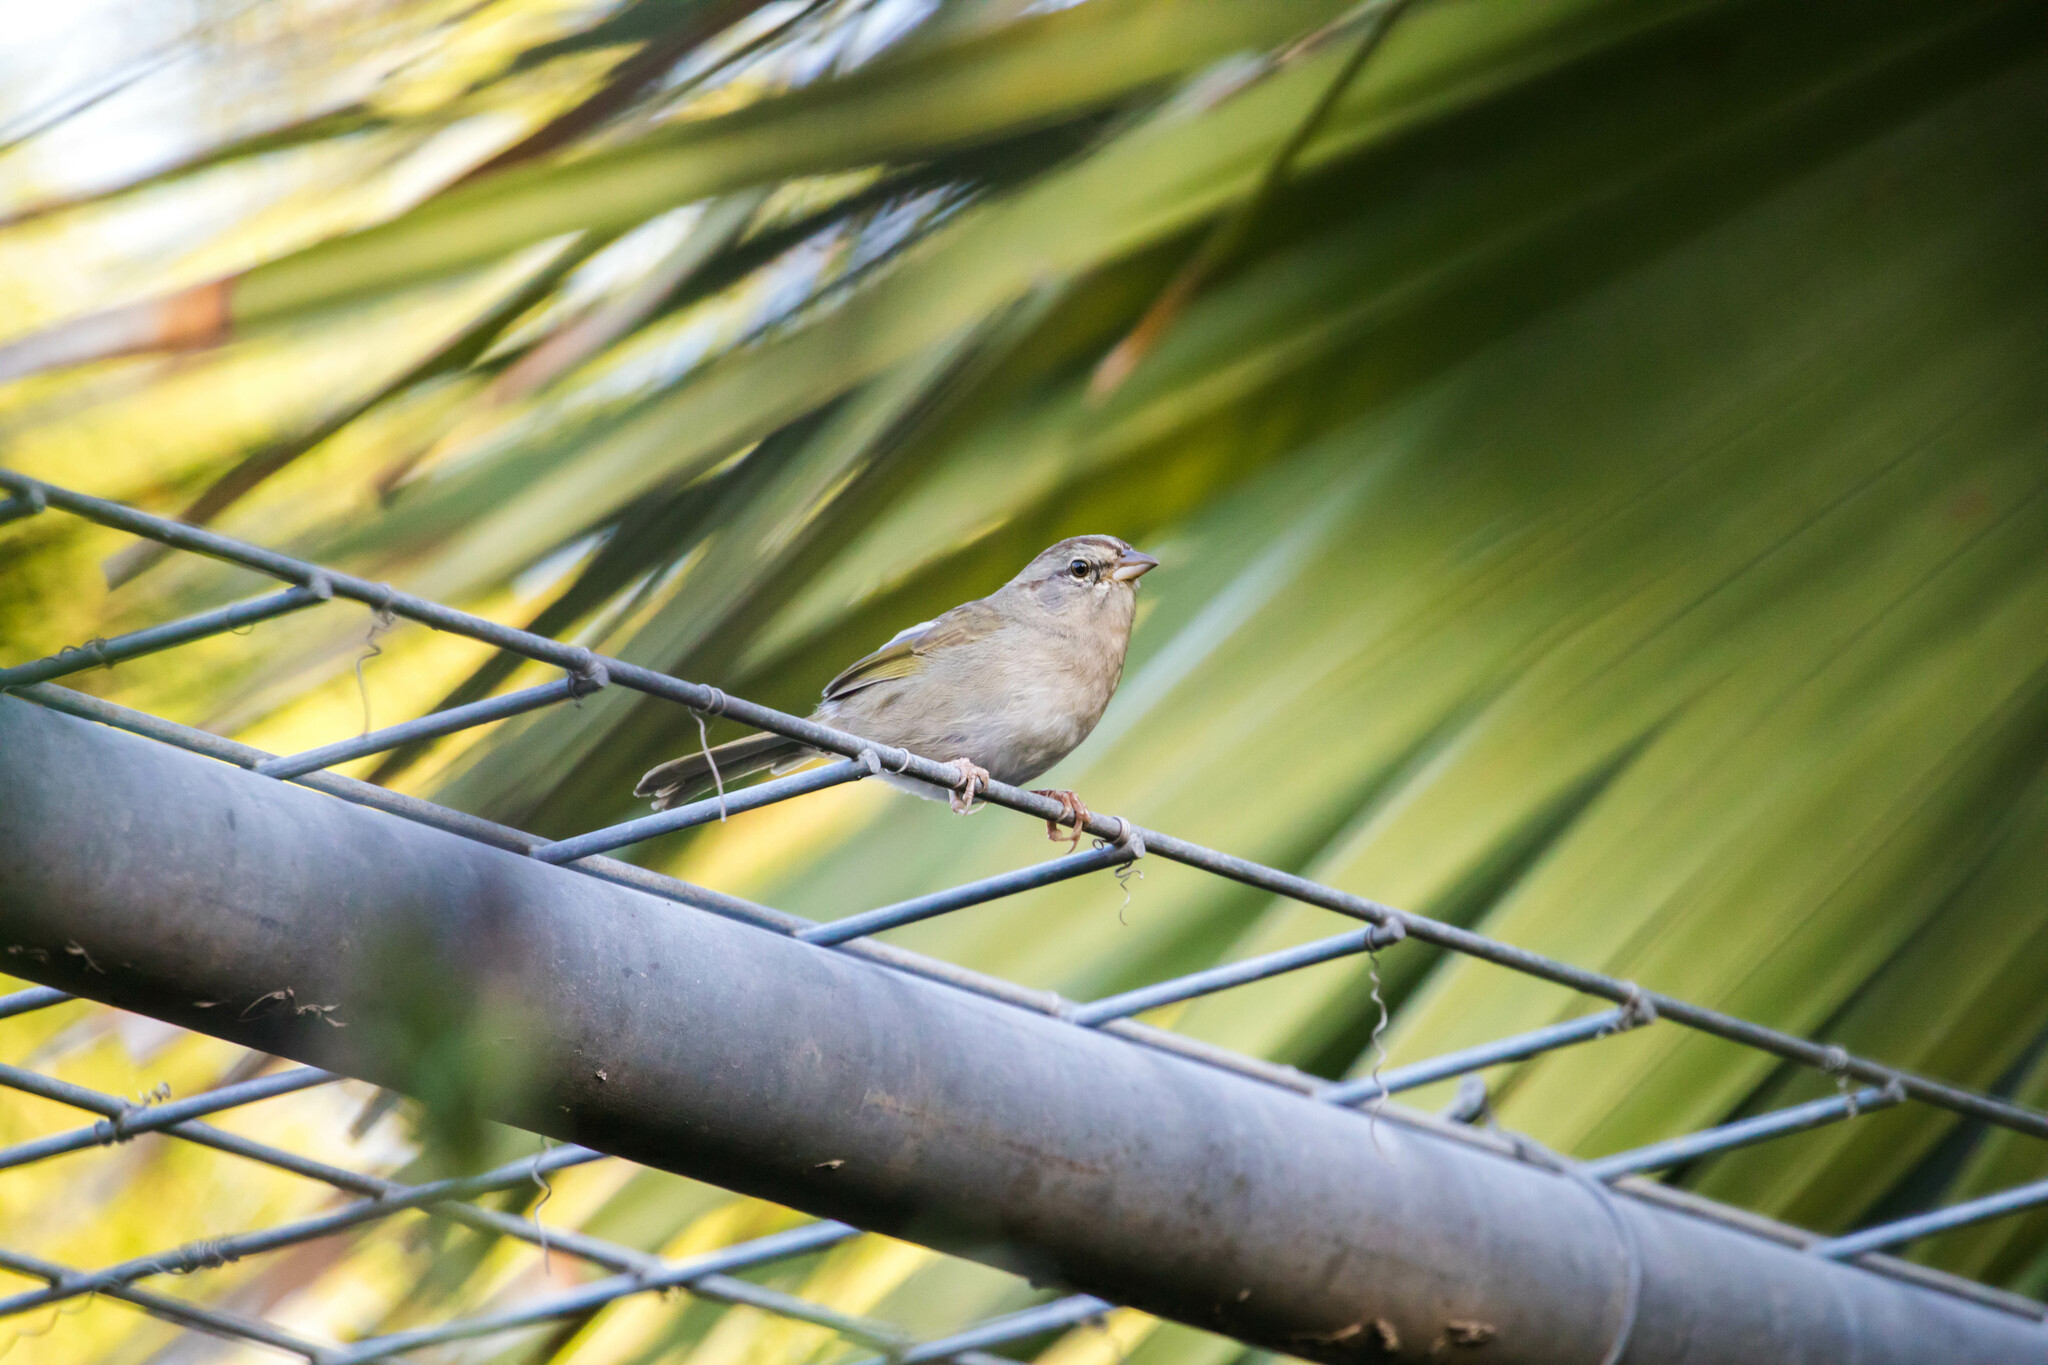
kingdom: Animalia
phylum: Chordata
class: Aves
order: Passeriformes
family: Passerellidae
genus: Arremonops
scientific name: Arremonops rufivirgatus
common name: Olive sparrow
